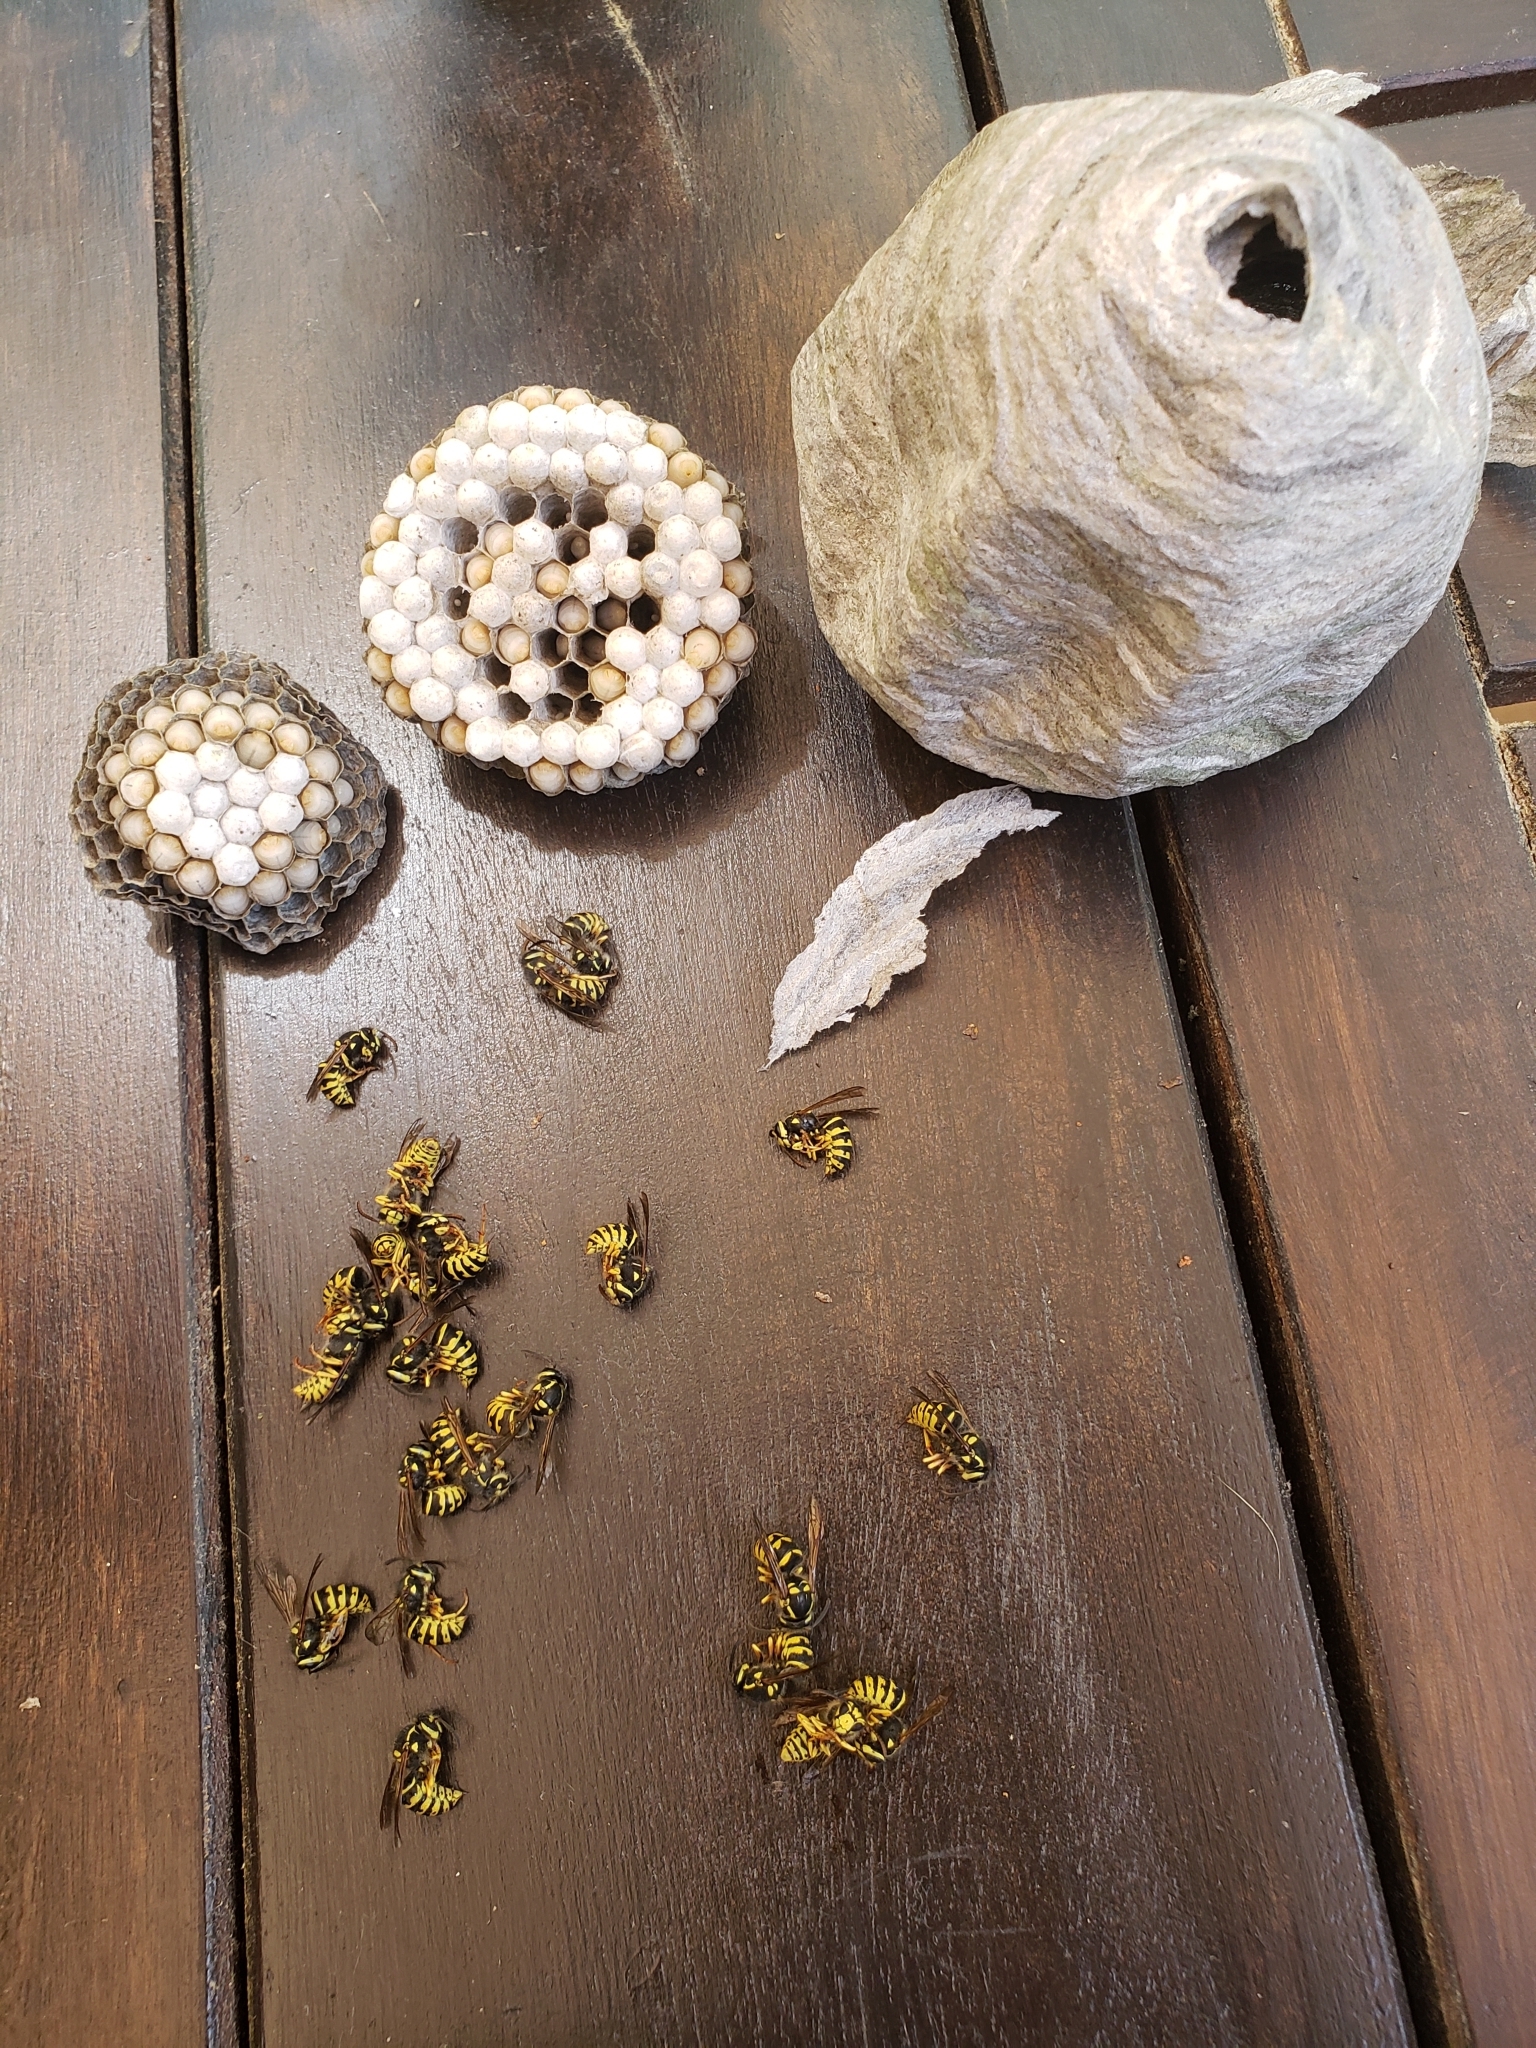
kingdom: Animalia
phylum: Arthropoda
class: Insecta
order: Hymenoptera
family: Vespidae
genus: Dolichovespula
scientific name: Dolichovespula arenaria
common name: Aerial yellowjacket
